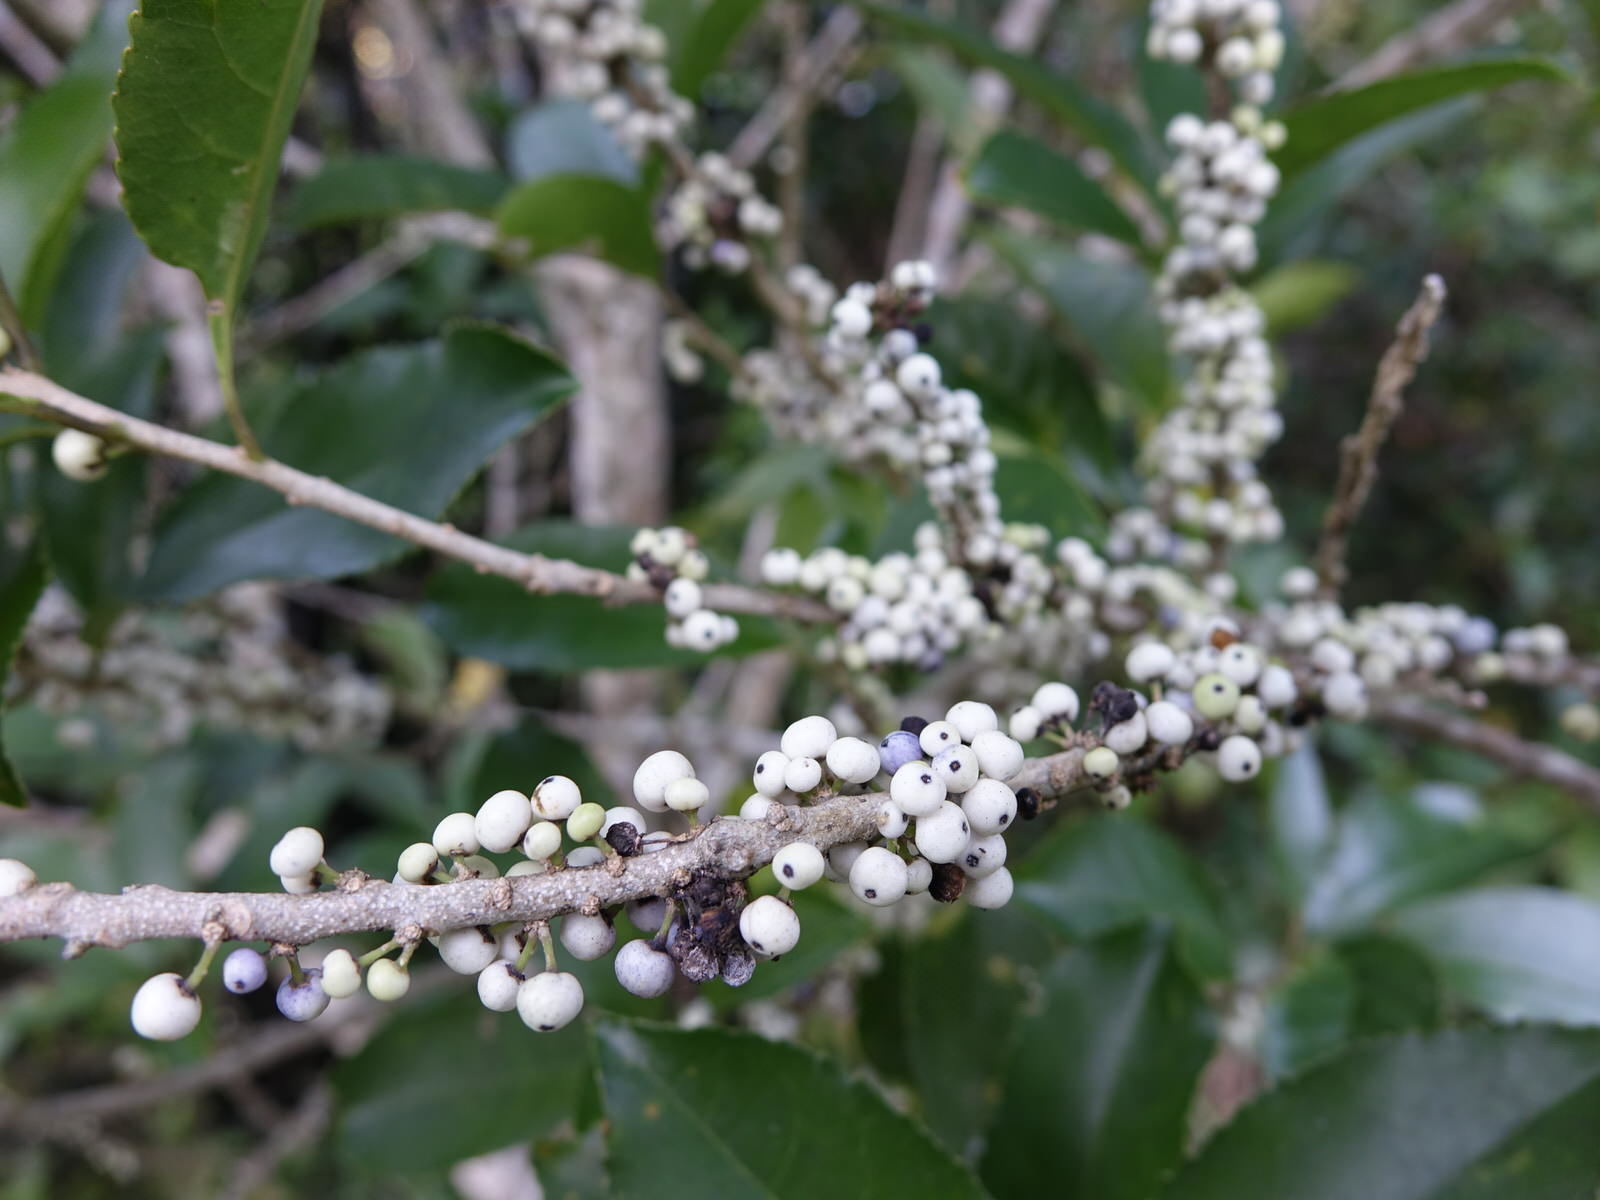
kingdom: Plantae
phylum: Tracheophyta
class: Magnoliopsida
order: Malpighiales
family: Violaceae
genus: Melicytus
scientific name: Melicytus ramiflorus
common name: Mahoe
